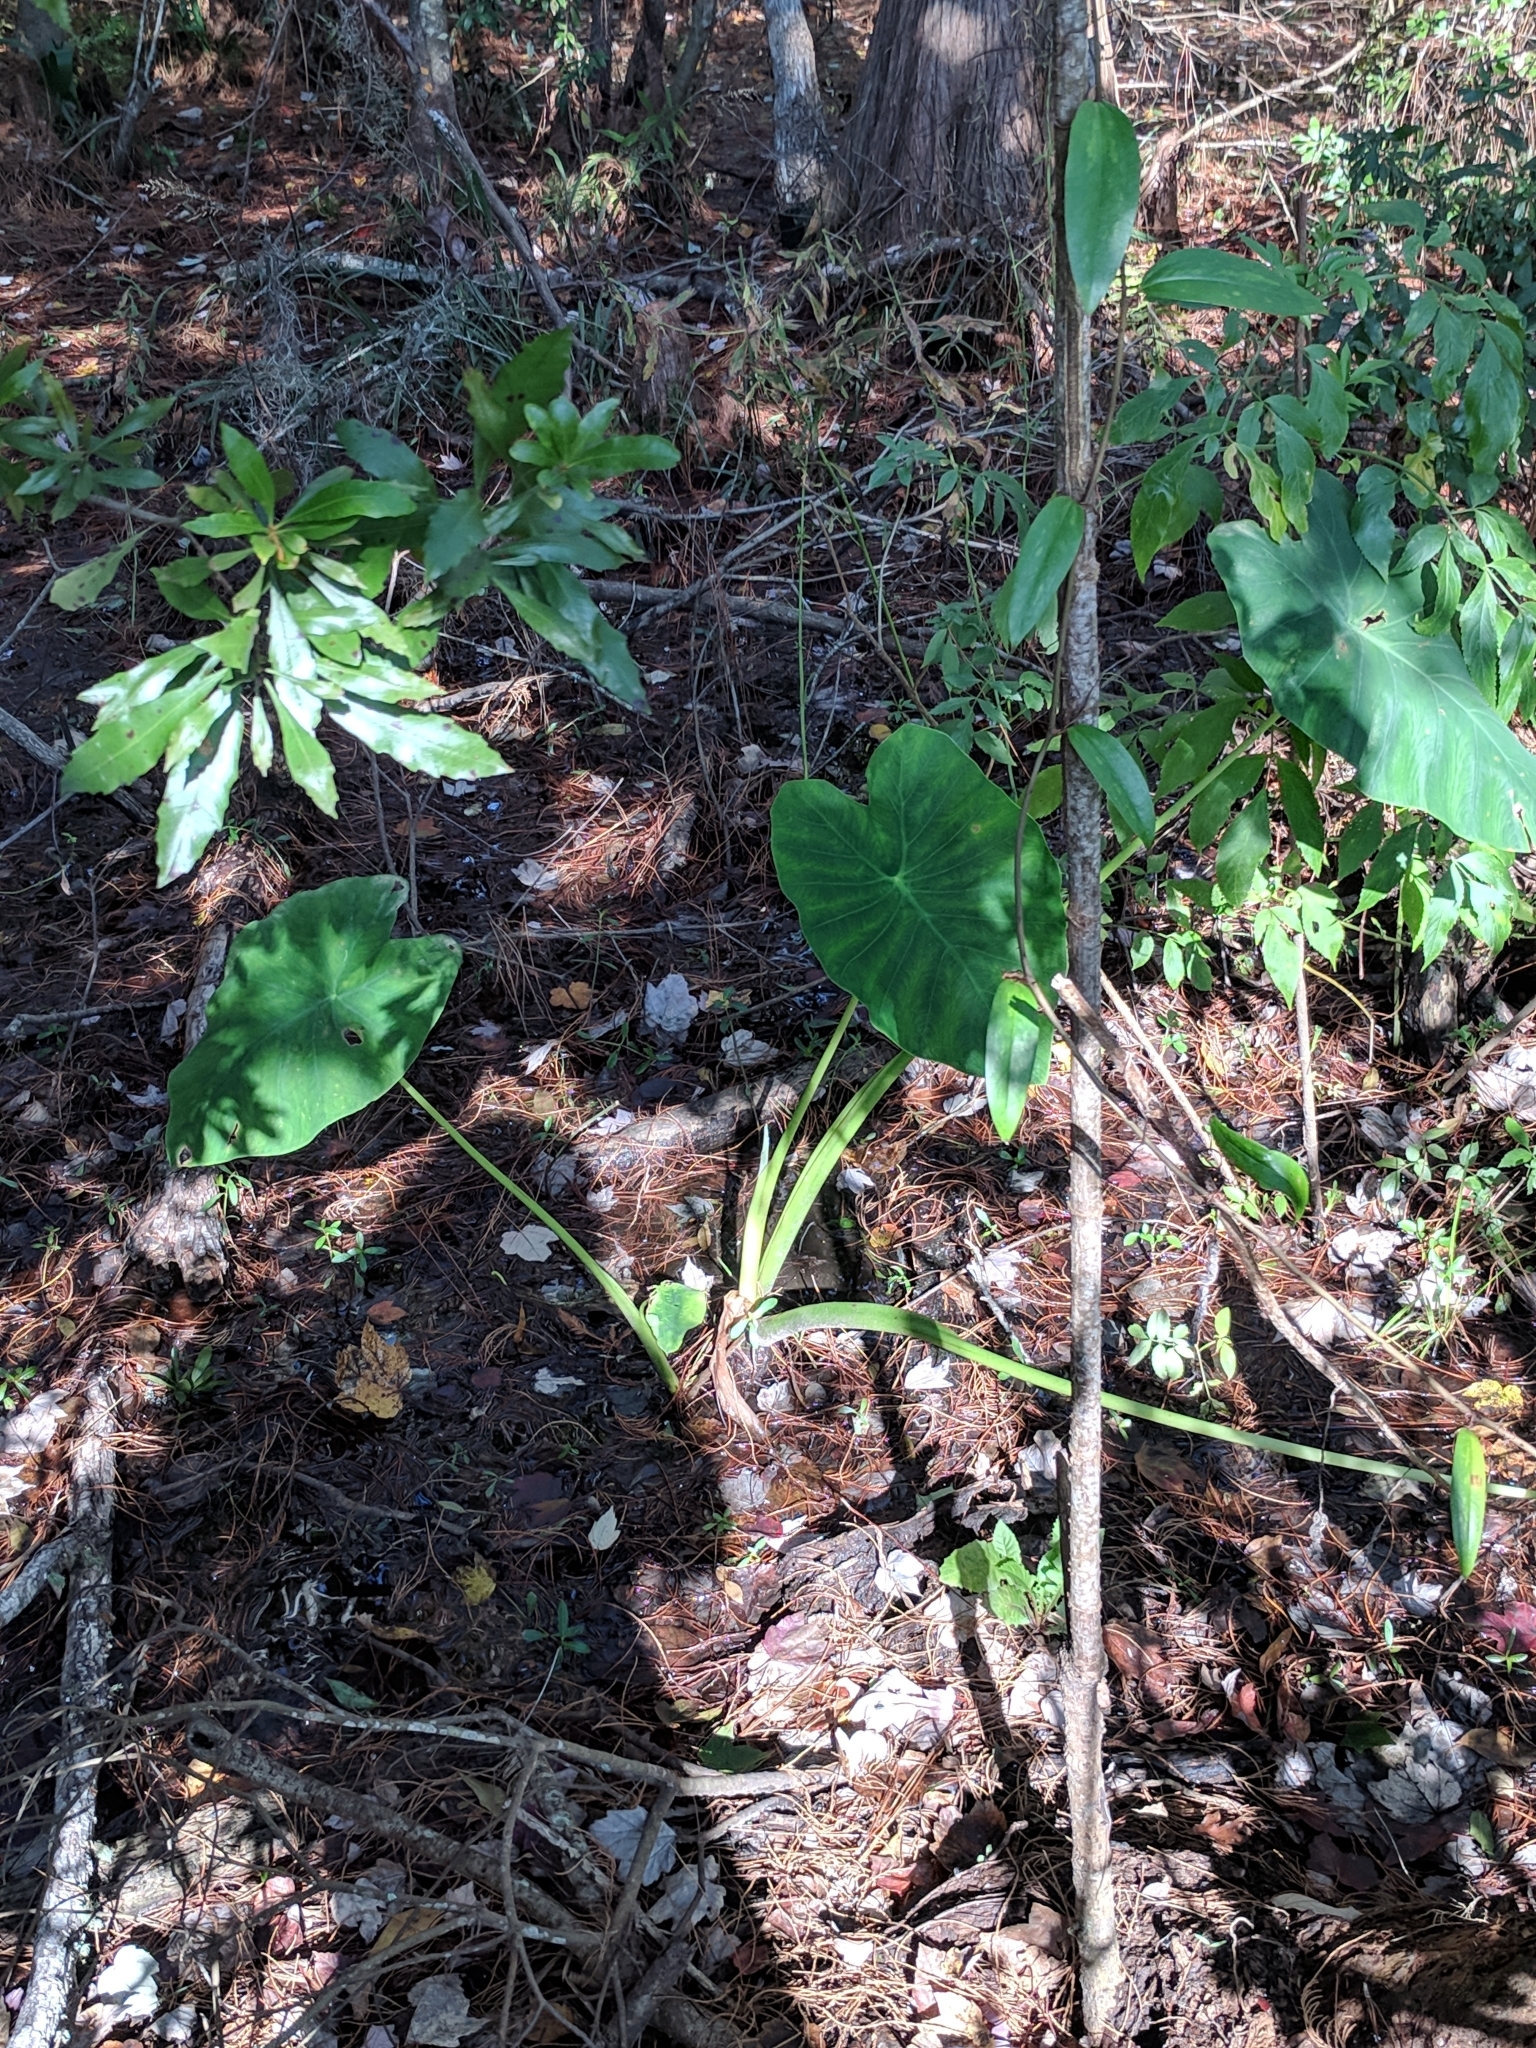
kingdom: Plantae
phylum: Tracheophyta
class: Liliopsida
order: Alismatales
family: Araceae
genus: Colocasia
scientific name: Colocasia esculenta
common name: Taro
